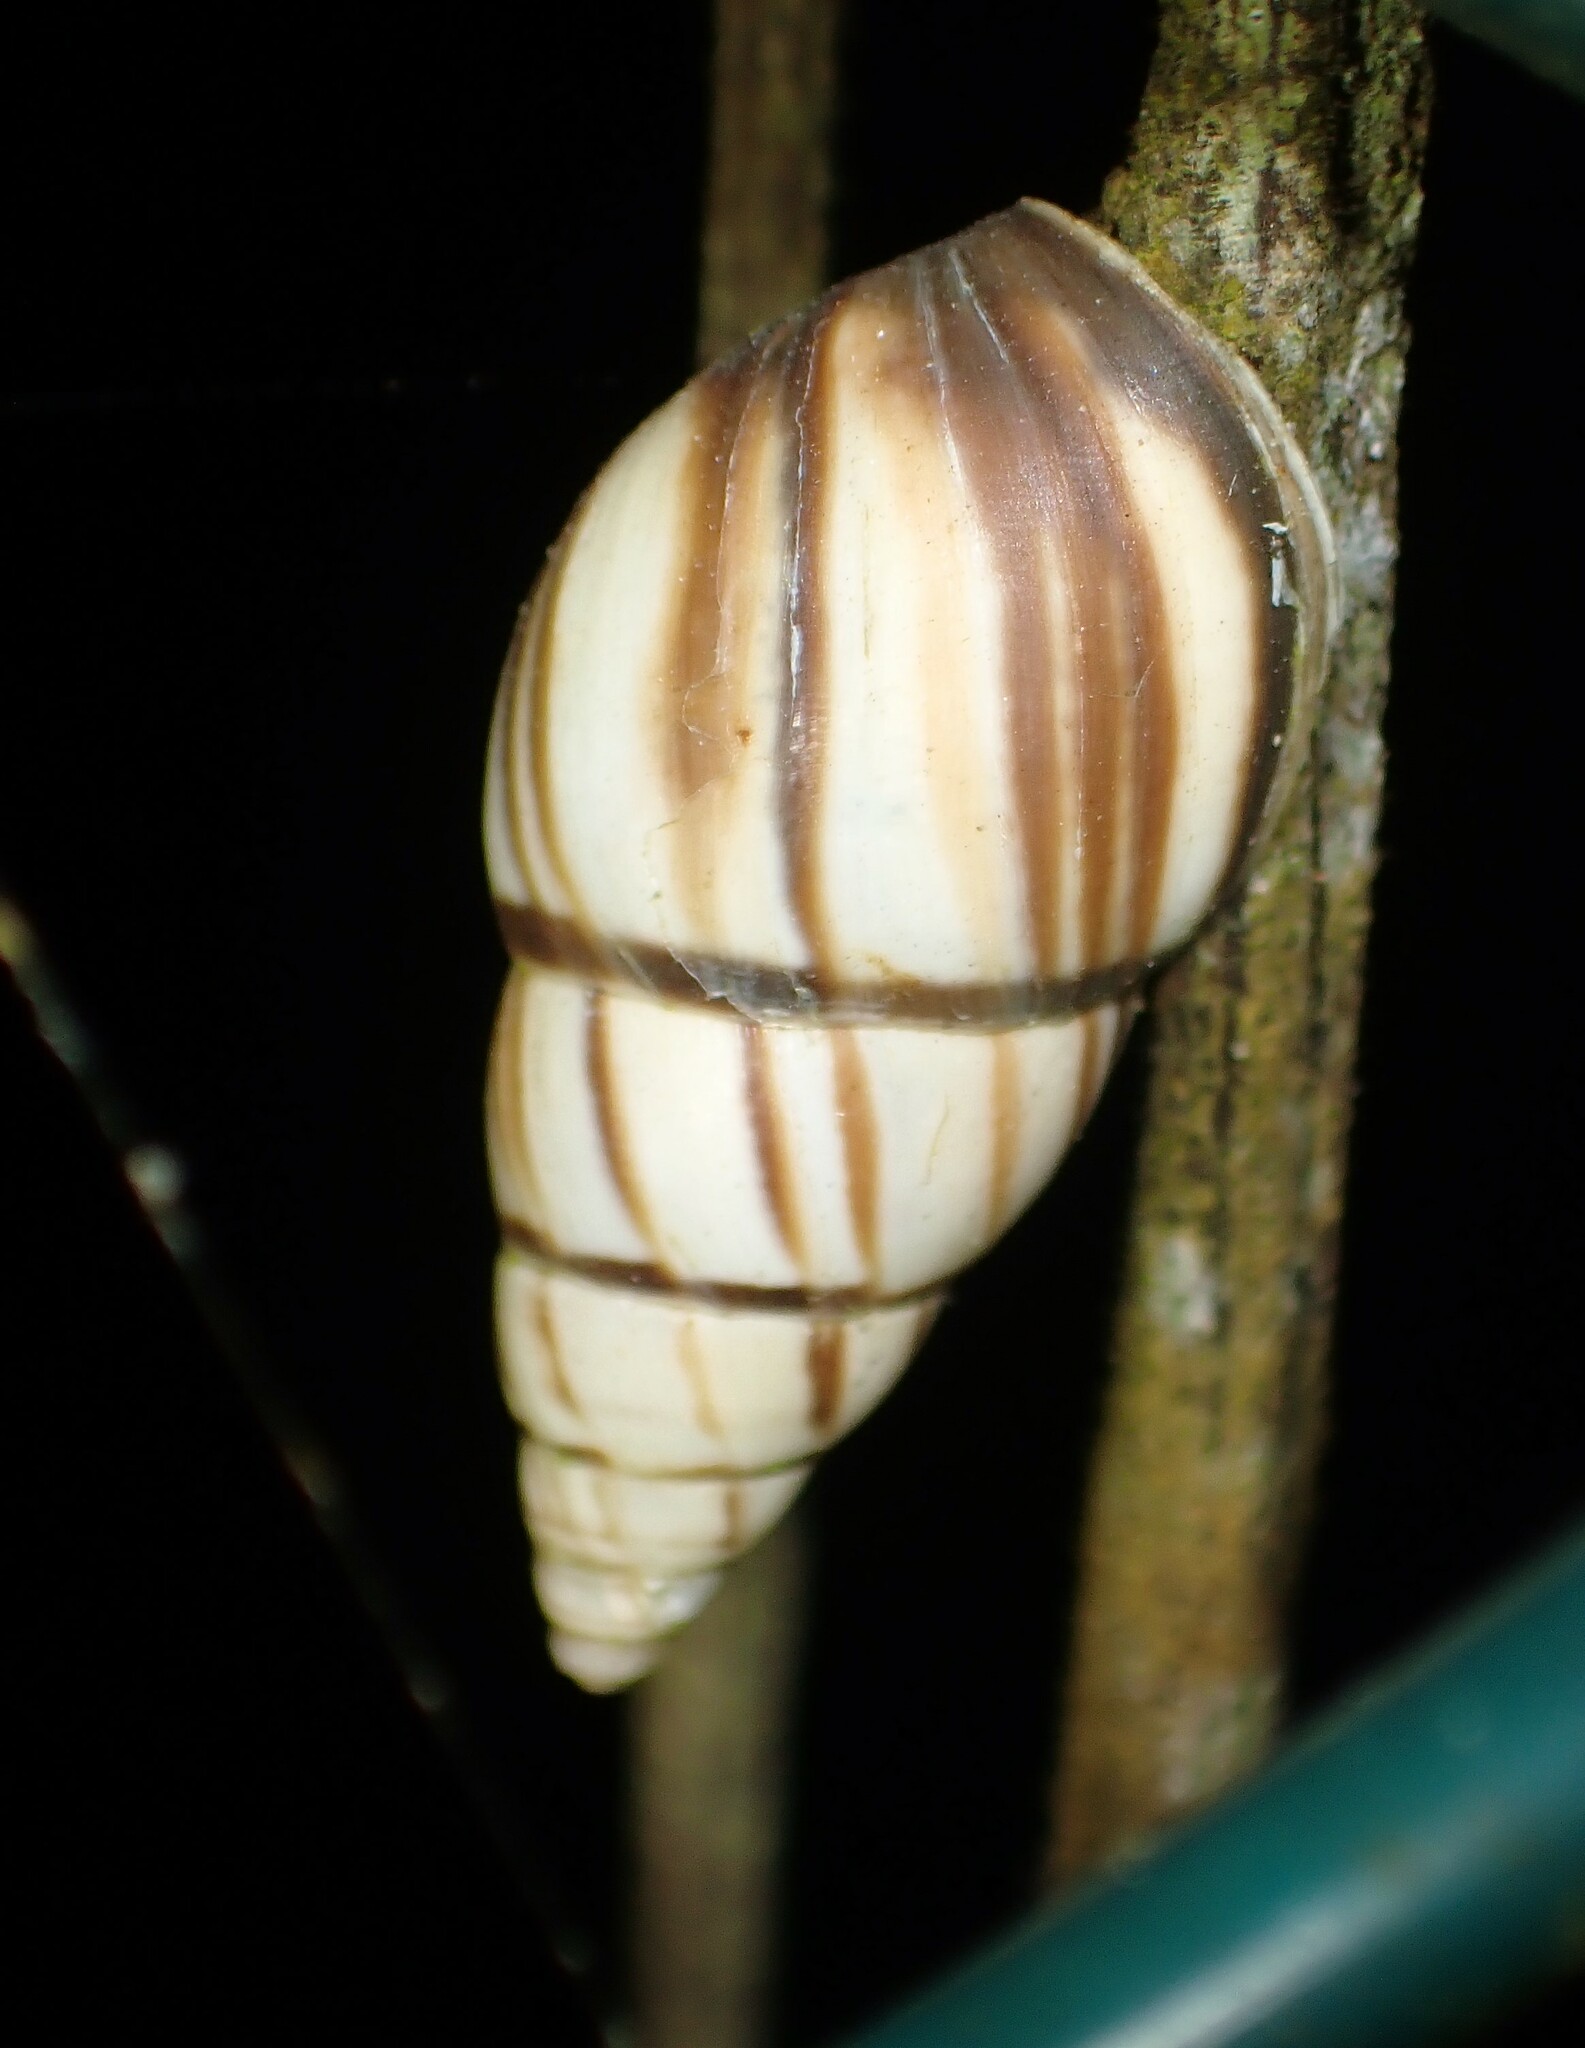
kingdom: Animalia
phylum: Mollusca
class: Gastropoda
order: Stylommatophora
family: Bulimulidae
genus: Drymaeus
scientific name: Drymaeus
